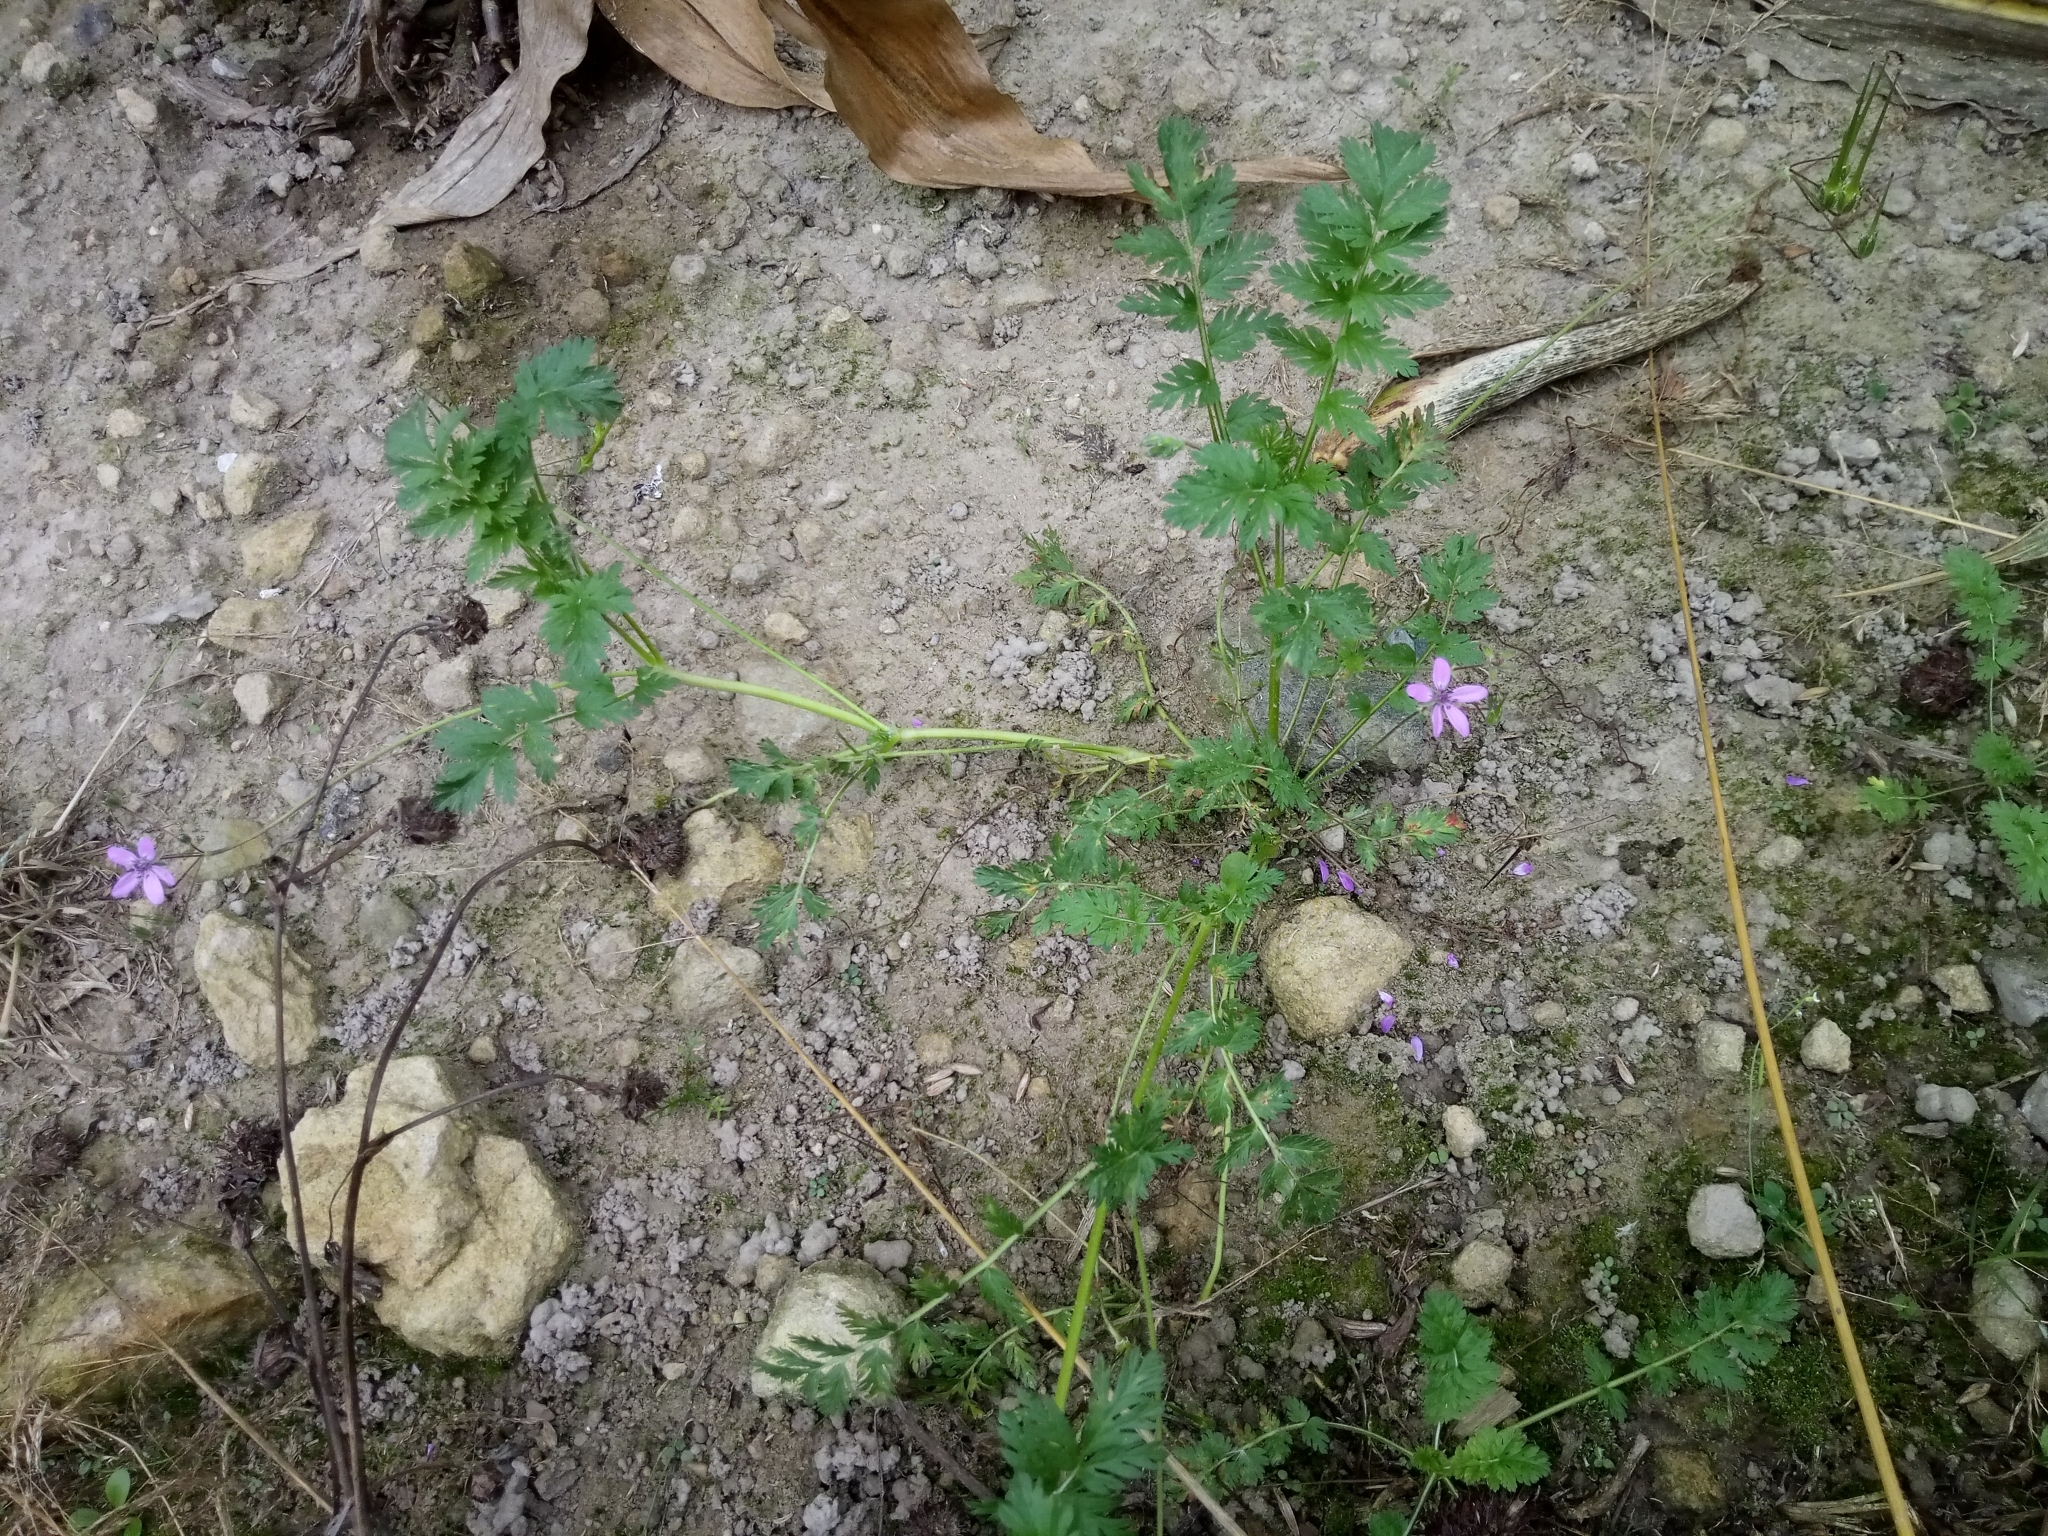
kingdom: Plantae
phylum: Tracheophyta
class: Magnoliopsida
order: Geraniales
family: Geraniaceae
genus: Erodium
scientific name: Erodium cicutarium
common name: Common stork's-bill
